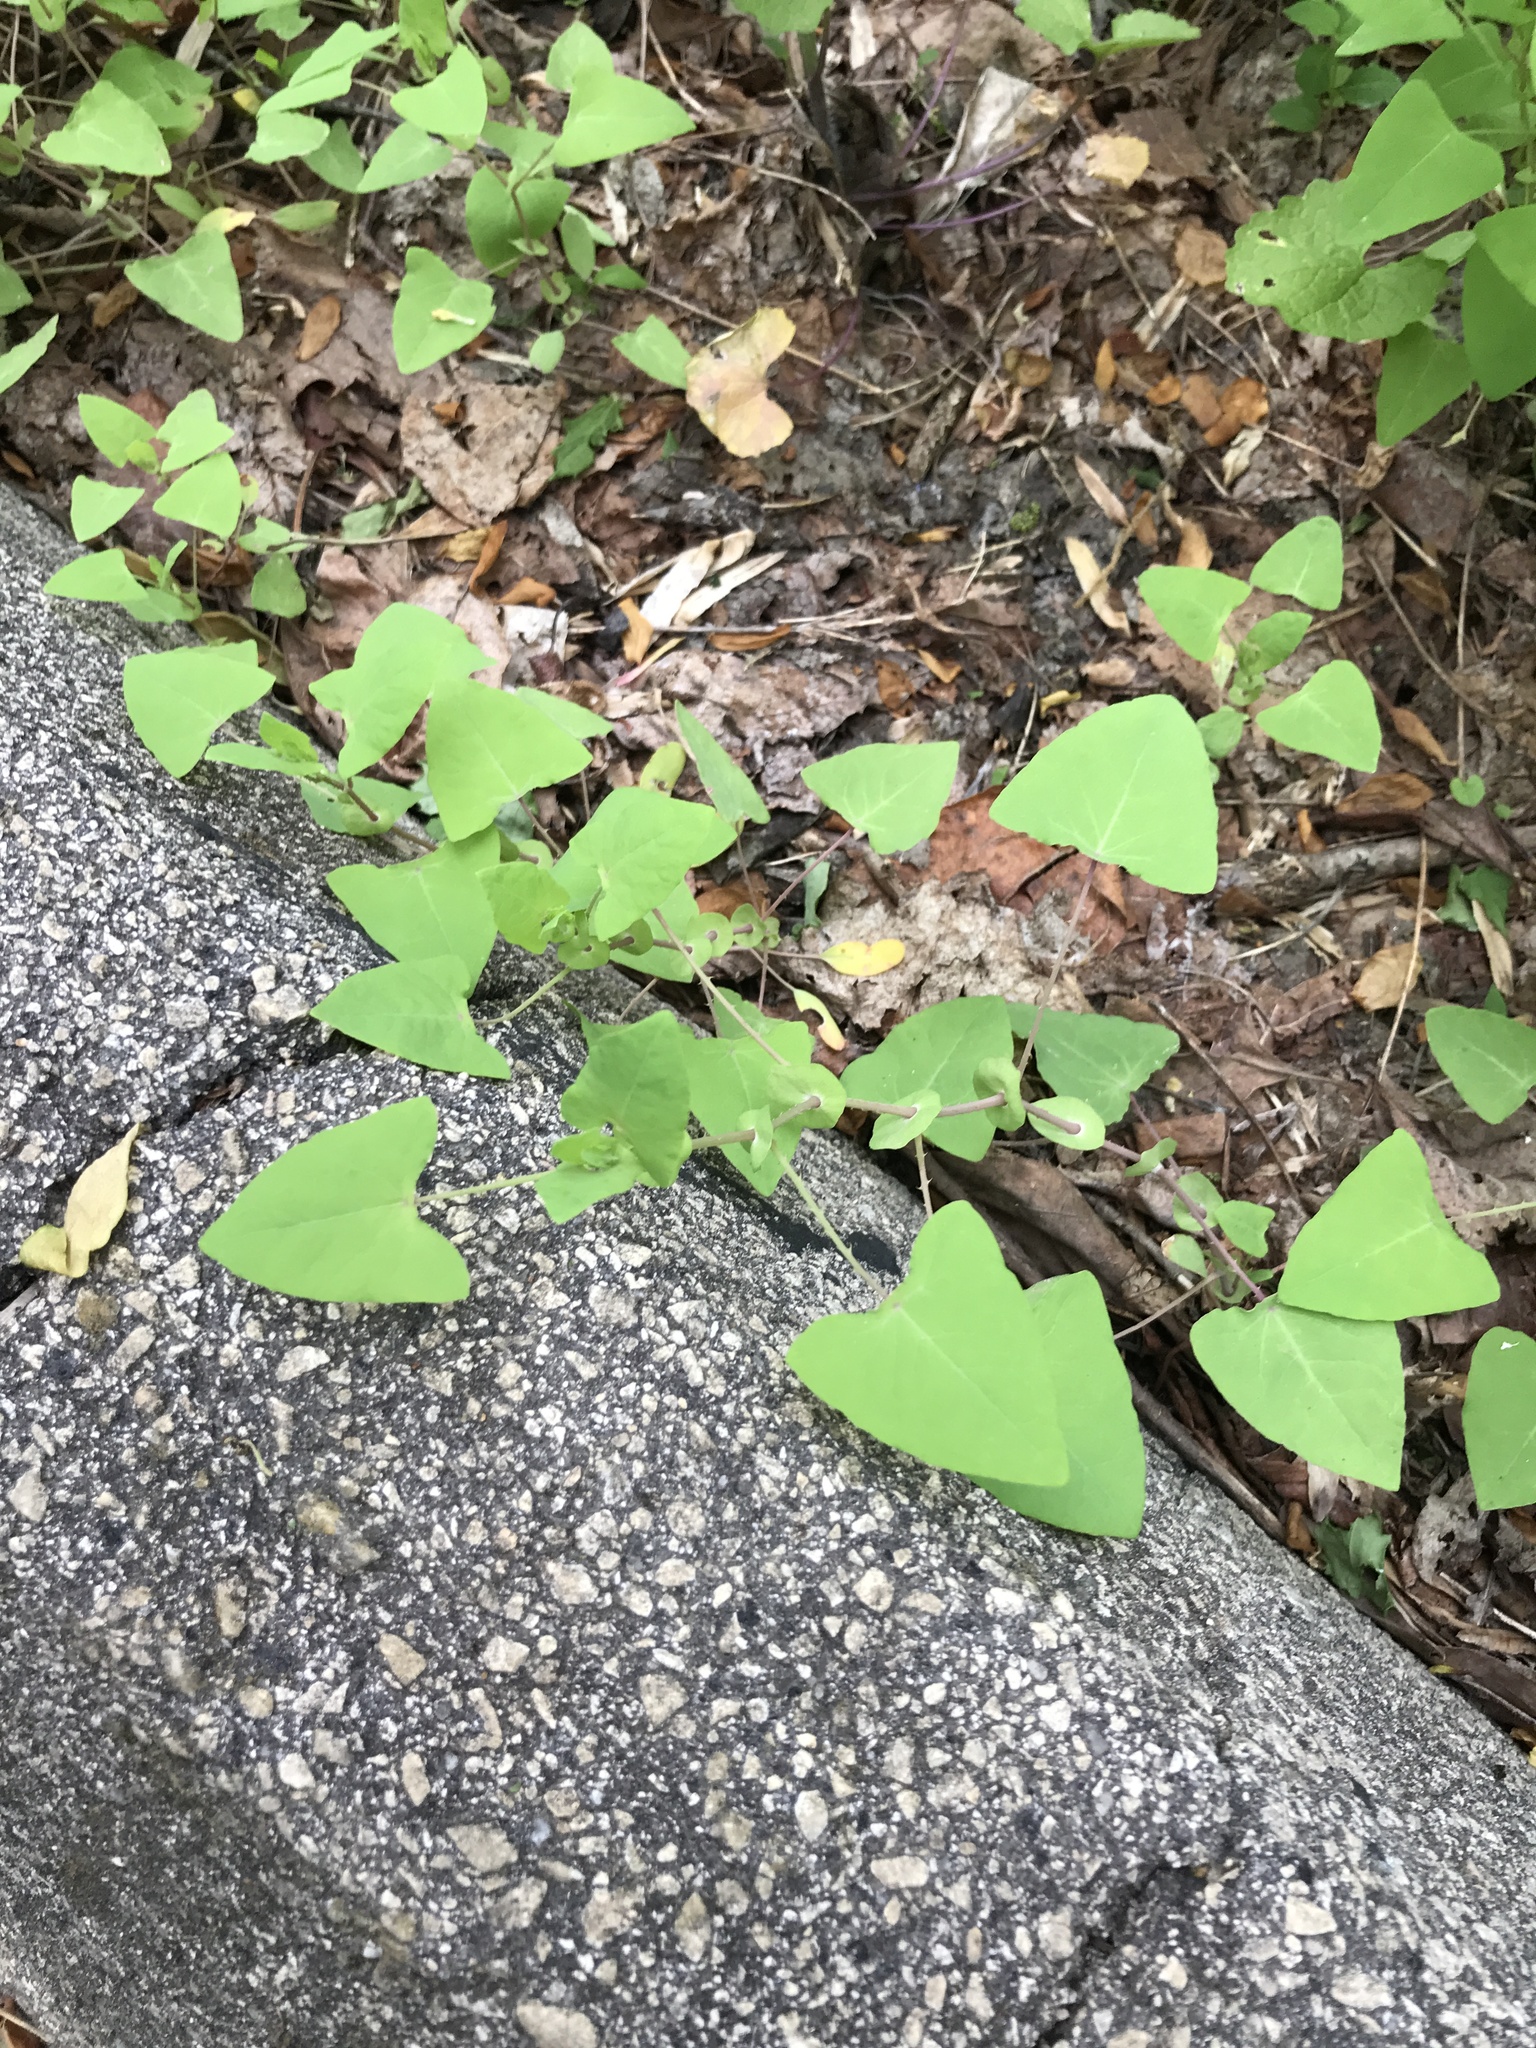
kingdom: Plantae
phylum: Tracheophyta
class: Magnoliopsida
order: Caryophyllales
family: Polygonaceae
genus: Persicaria
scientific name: Persicaria perfoliata
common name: Asiatic tearthumb
